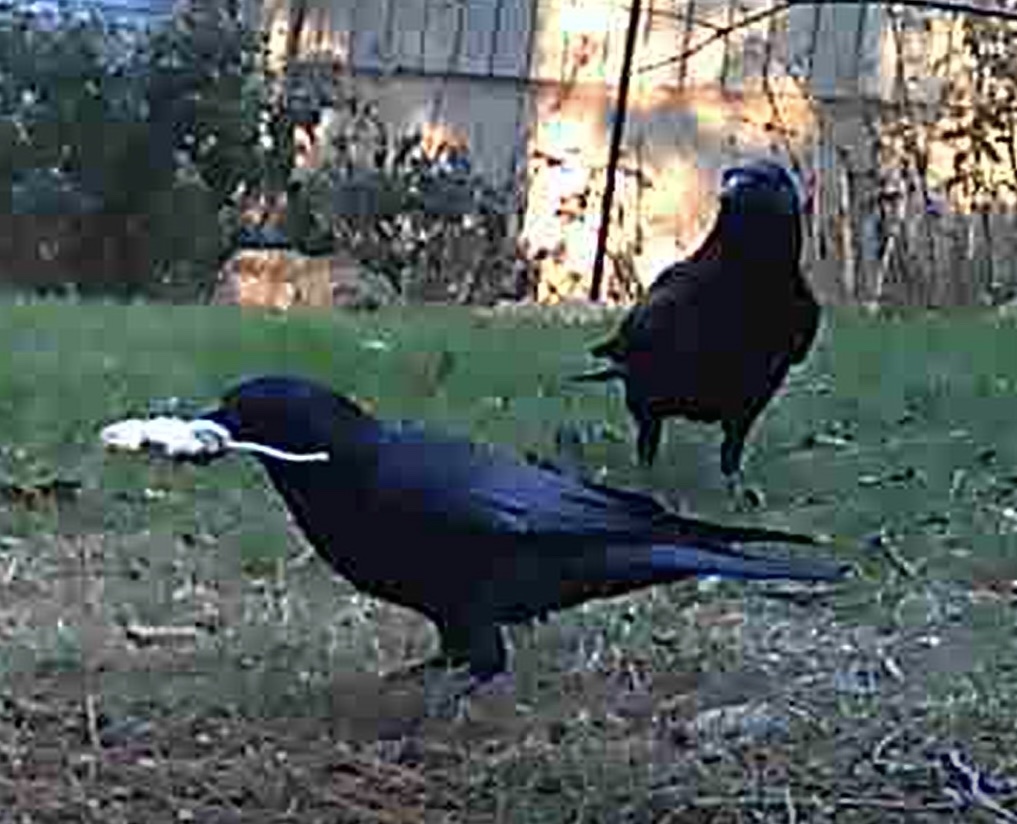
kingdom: Animalia
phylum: Chordata
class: Aves
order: Passeriformes
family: Corvidae
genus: Corvus
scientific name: Corvus brachyrhynchos
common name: American crow
